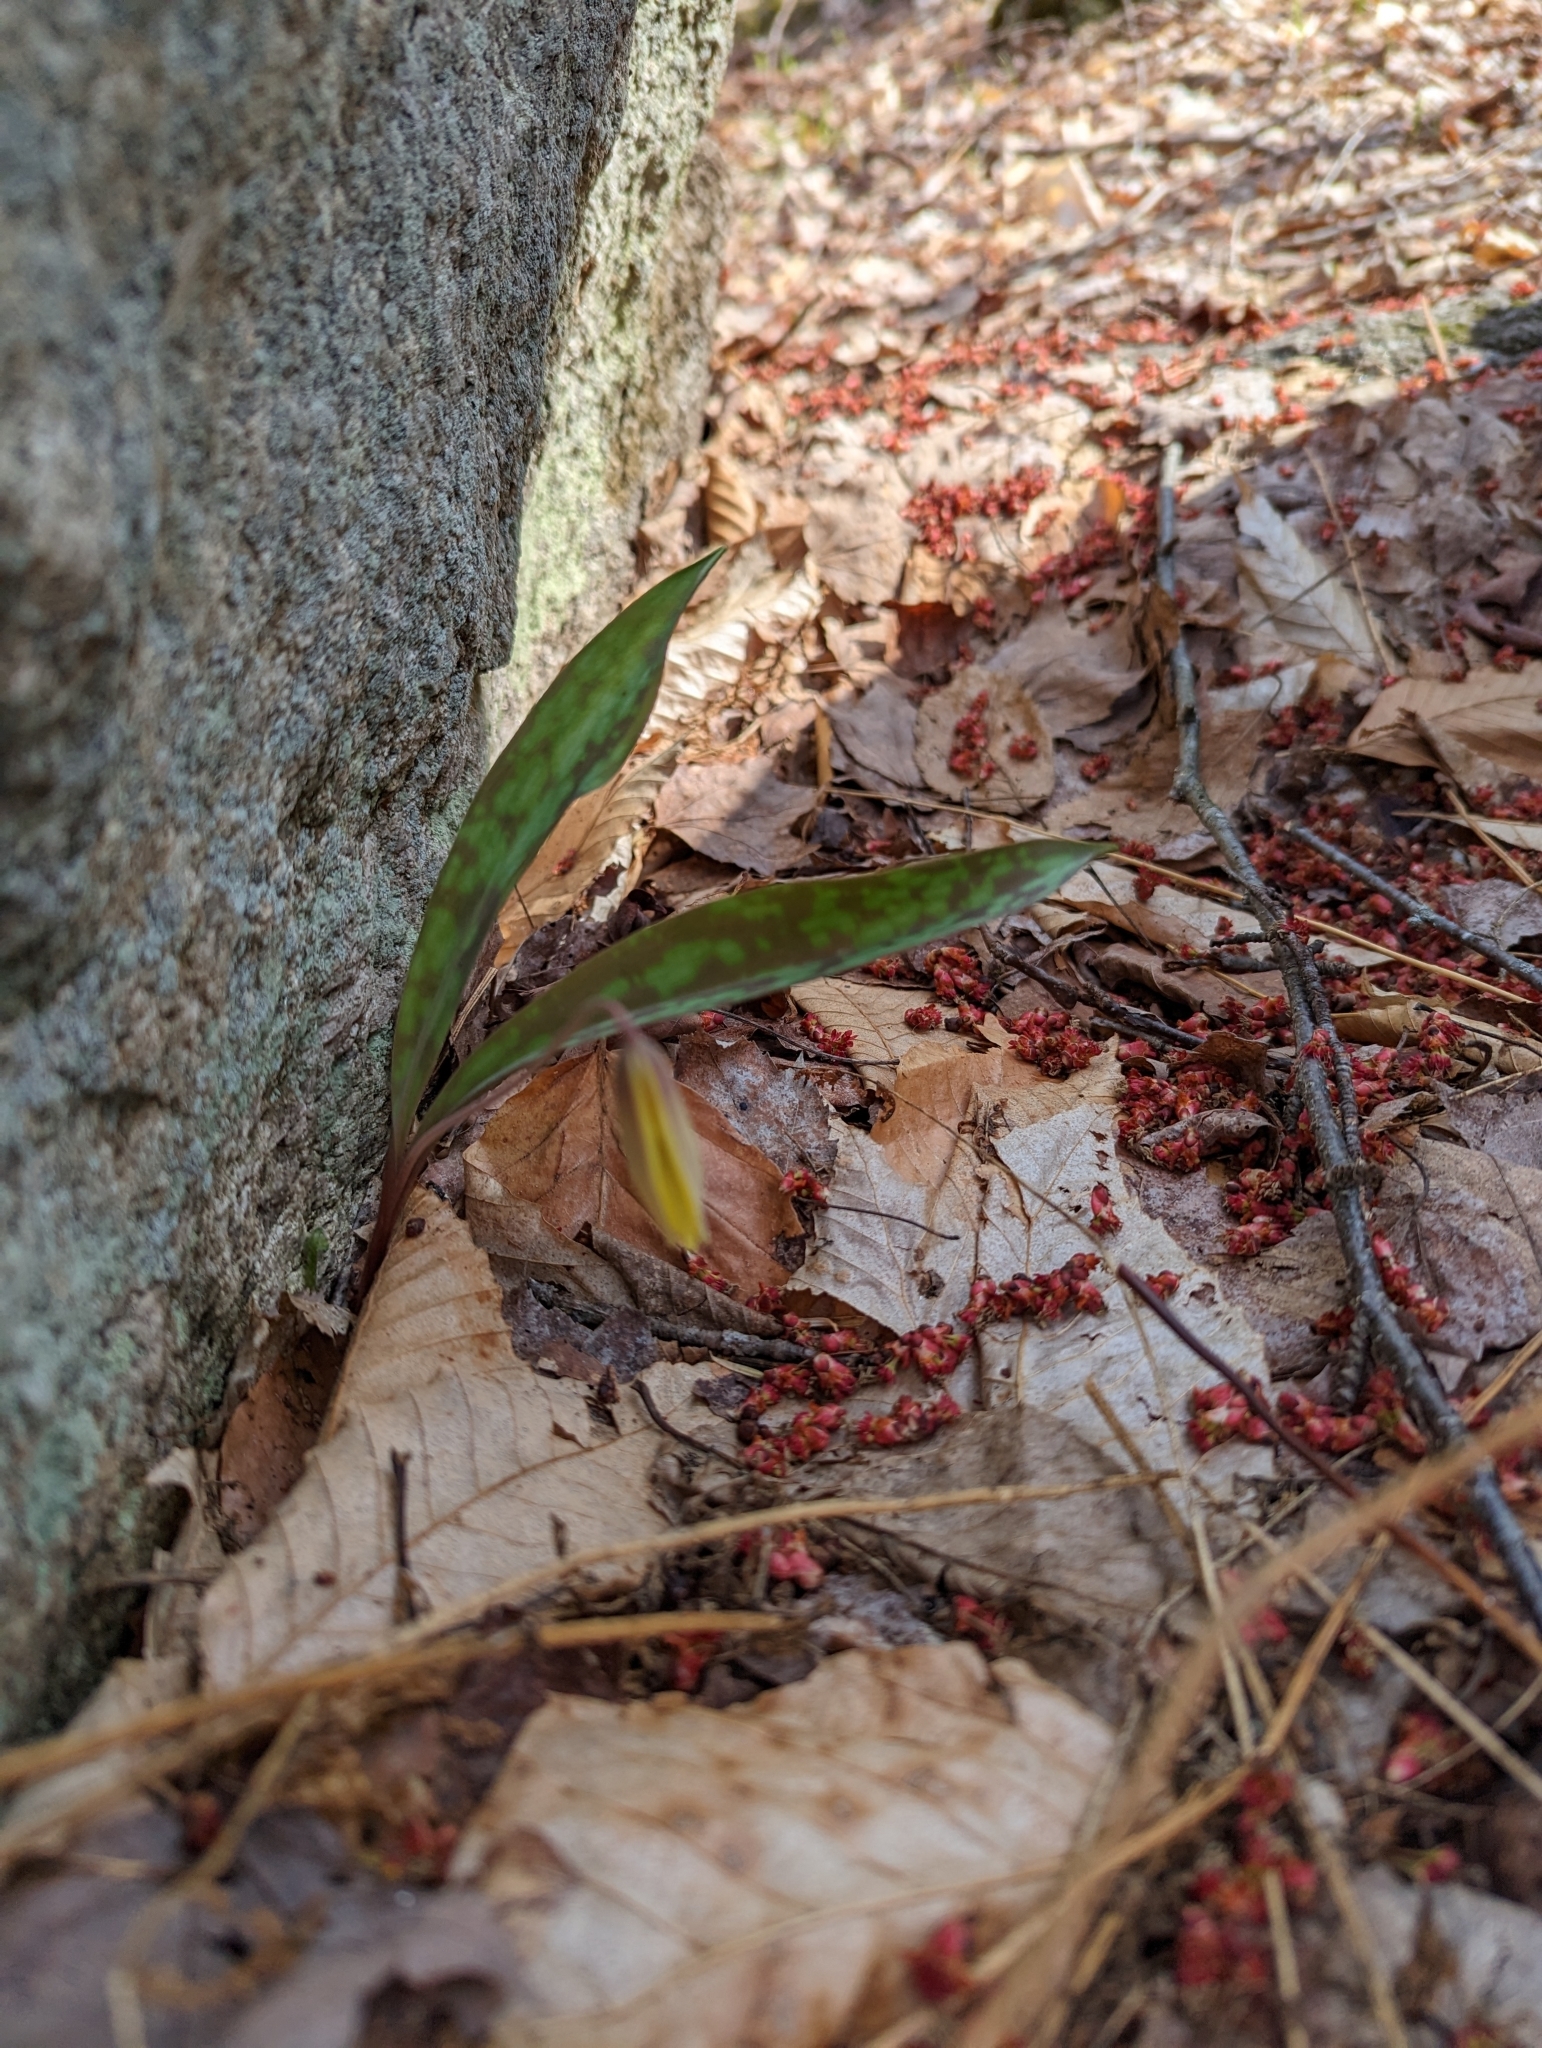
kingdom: Plantae
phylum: Tracheophyta
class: Liliopsida
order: Liliales
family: Liliaceae
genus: Erythronium
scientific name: Erythronium americanum
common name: Yellow adder's-tongue
